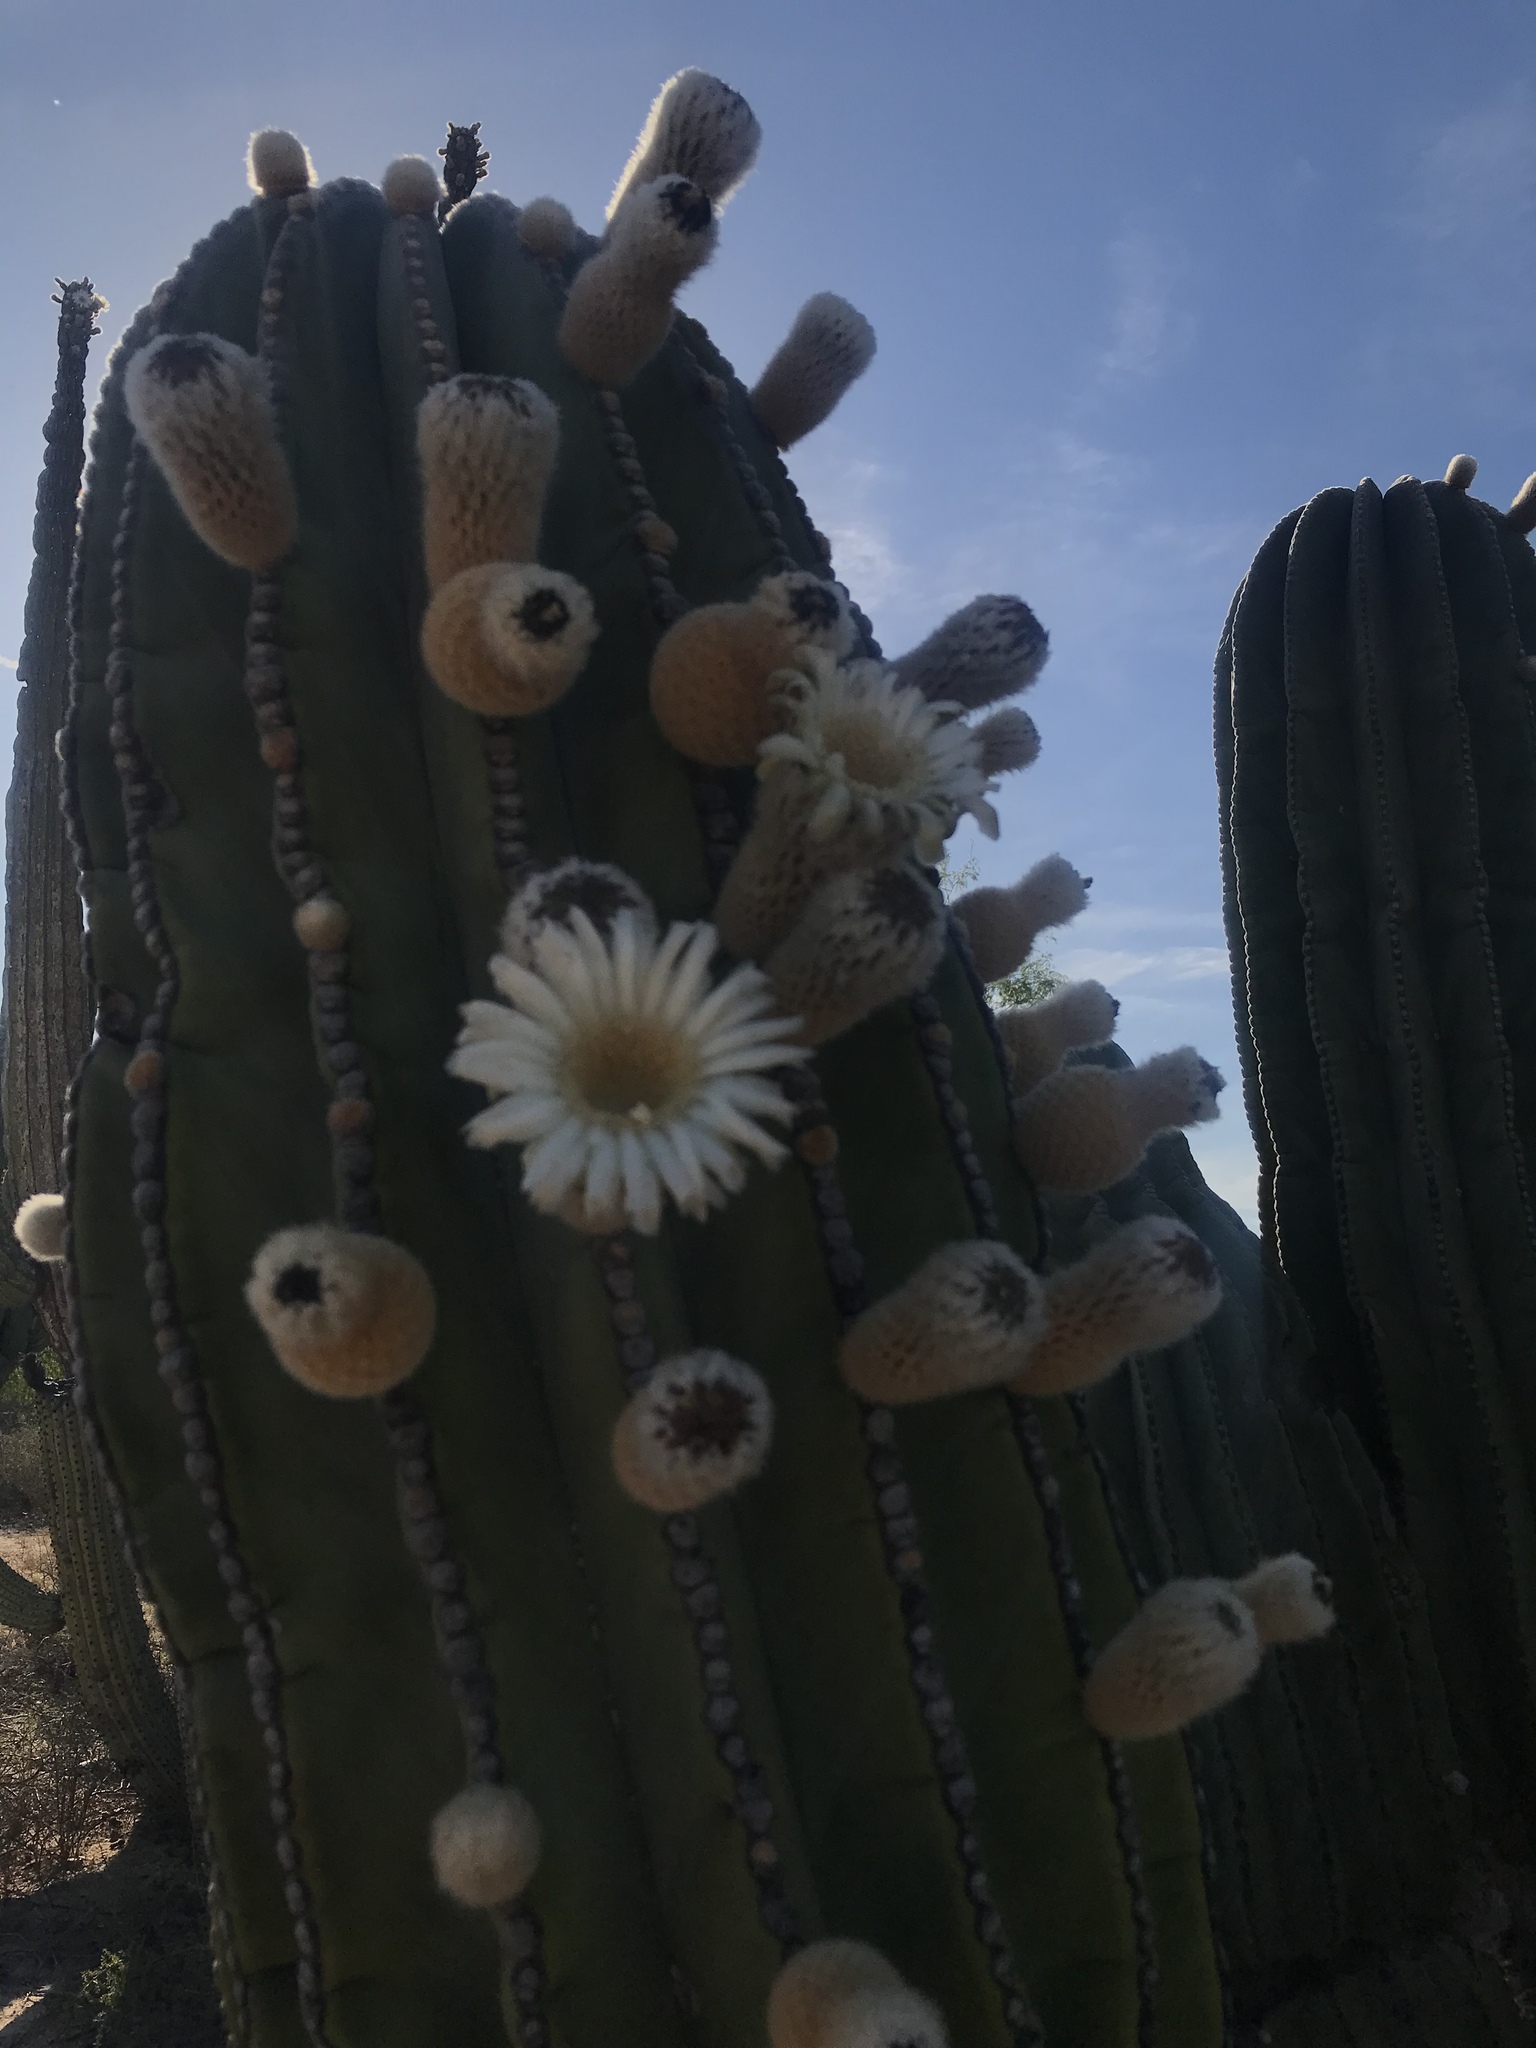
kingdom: Plantae
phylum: Tracheophyta
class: Magnoliopsida
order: Caryophyllales
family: Cactaceae
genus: Pachycereus
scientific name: Pachycereus pringlei
